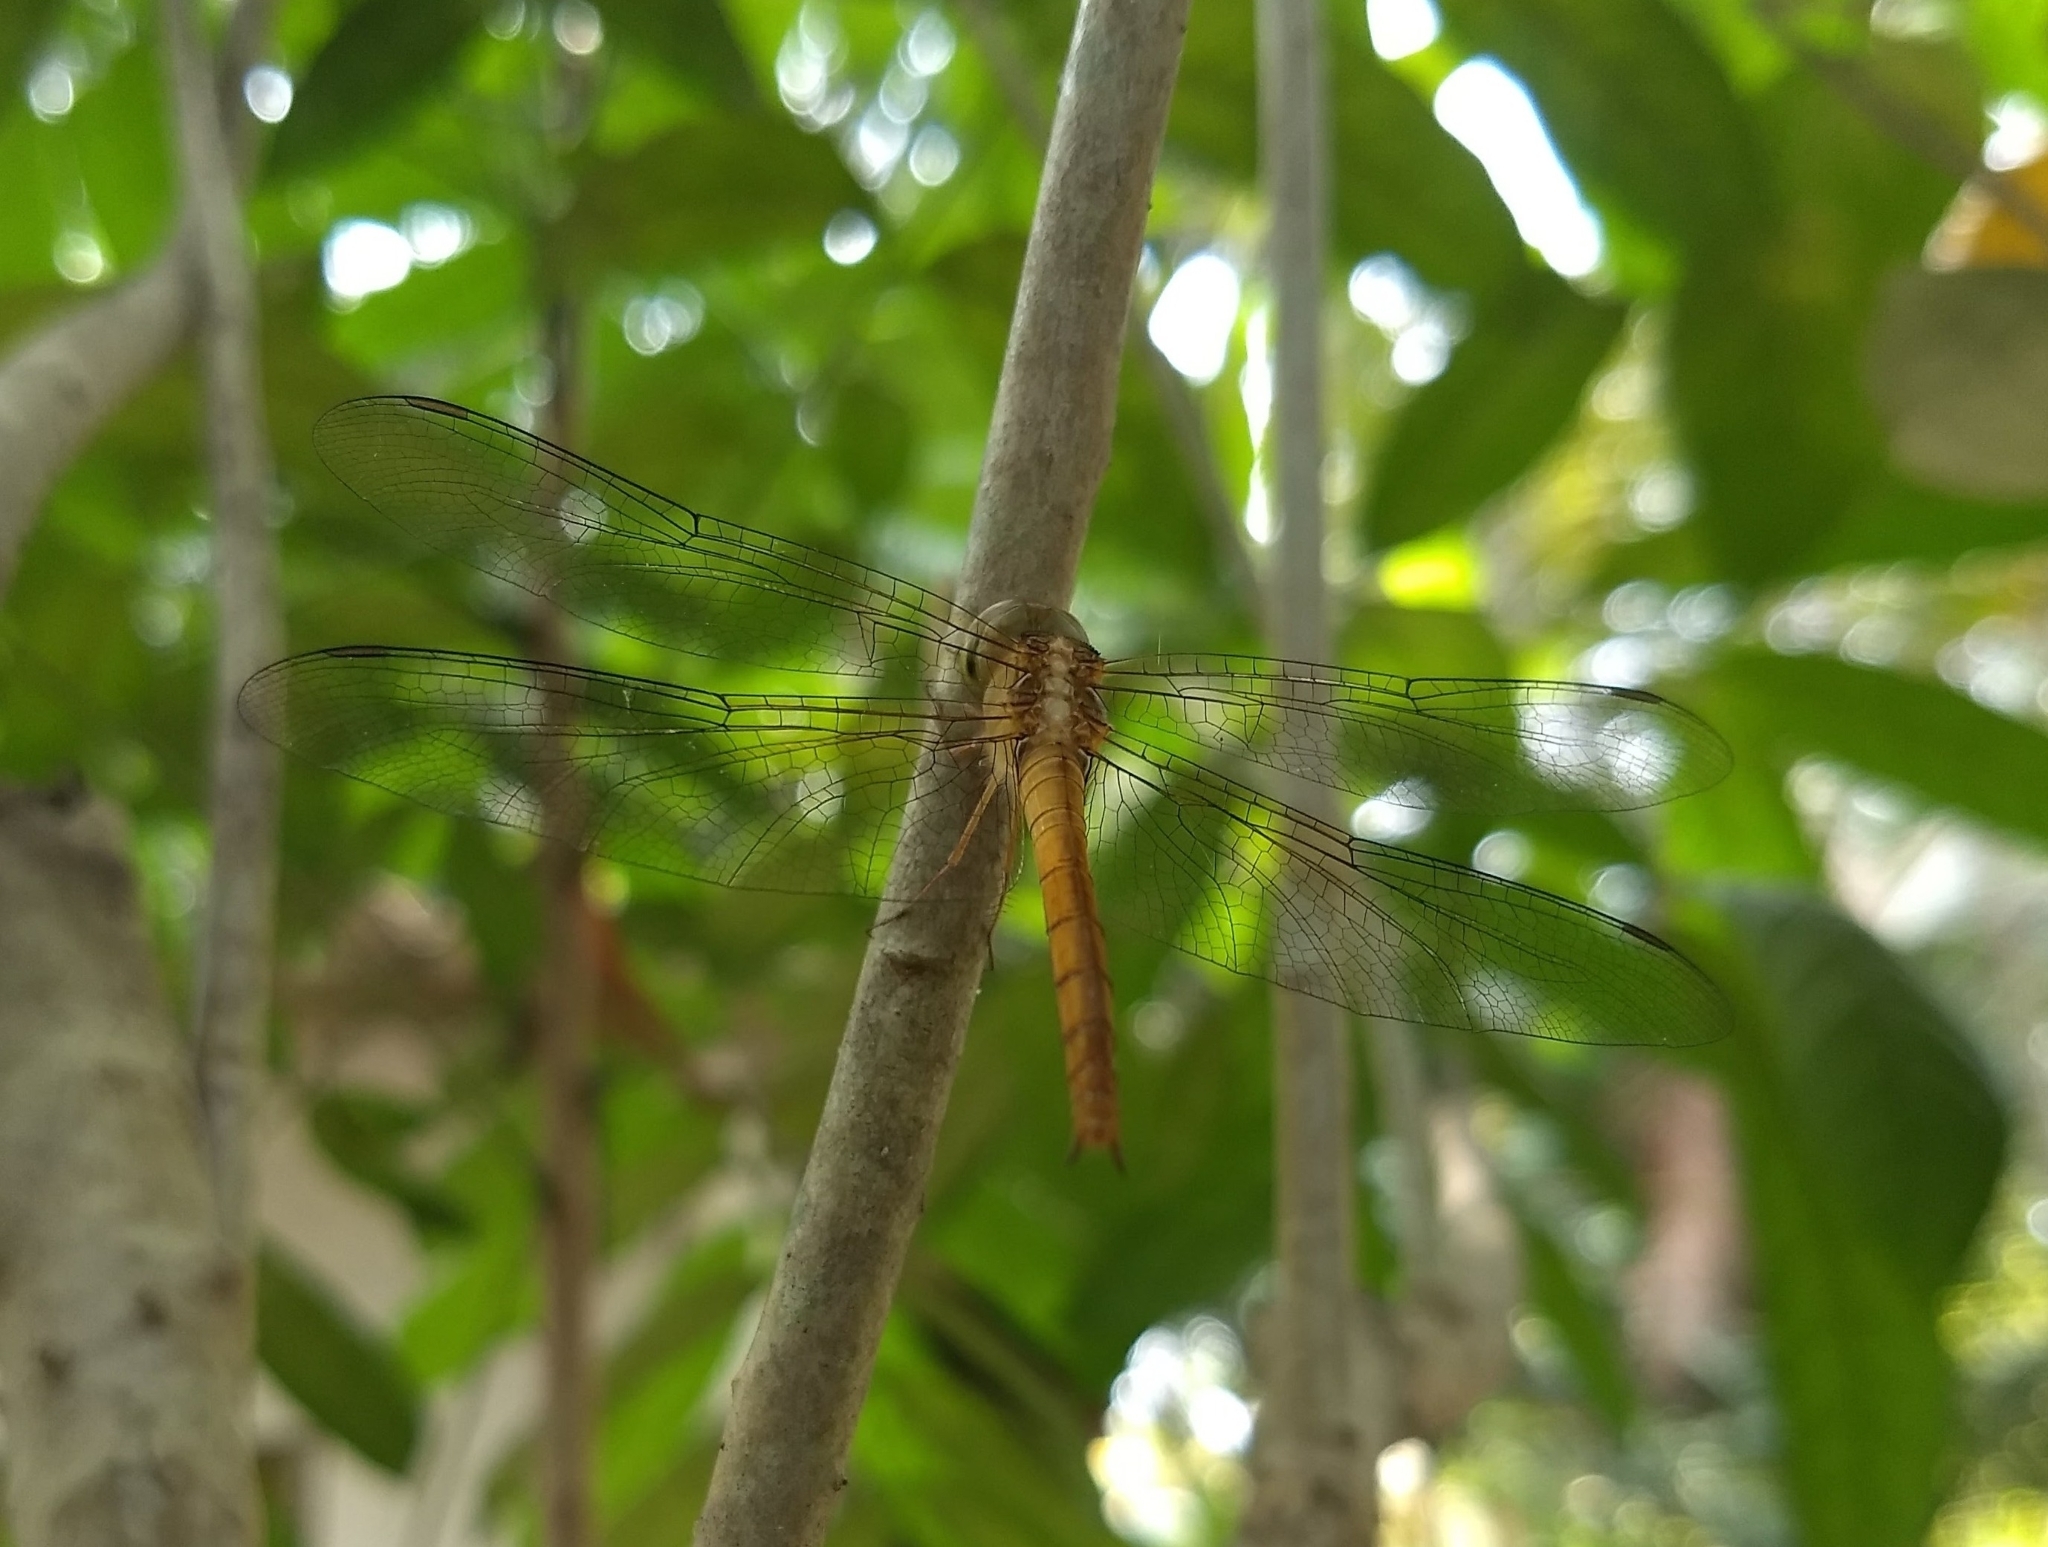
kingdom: Animalia
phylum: Arthropoda
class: Insecta
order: Odonata
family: Libellulidae
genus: Tholymis
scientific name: Tholymis tillarga
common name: Coral-tailed cloud wing
